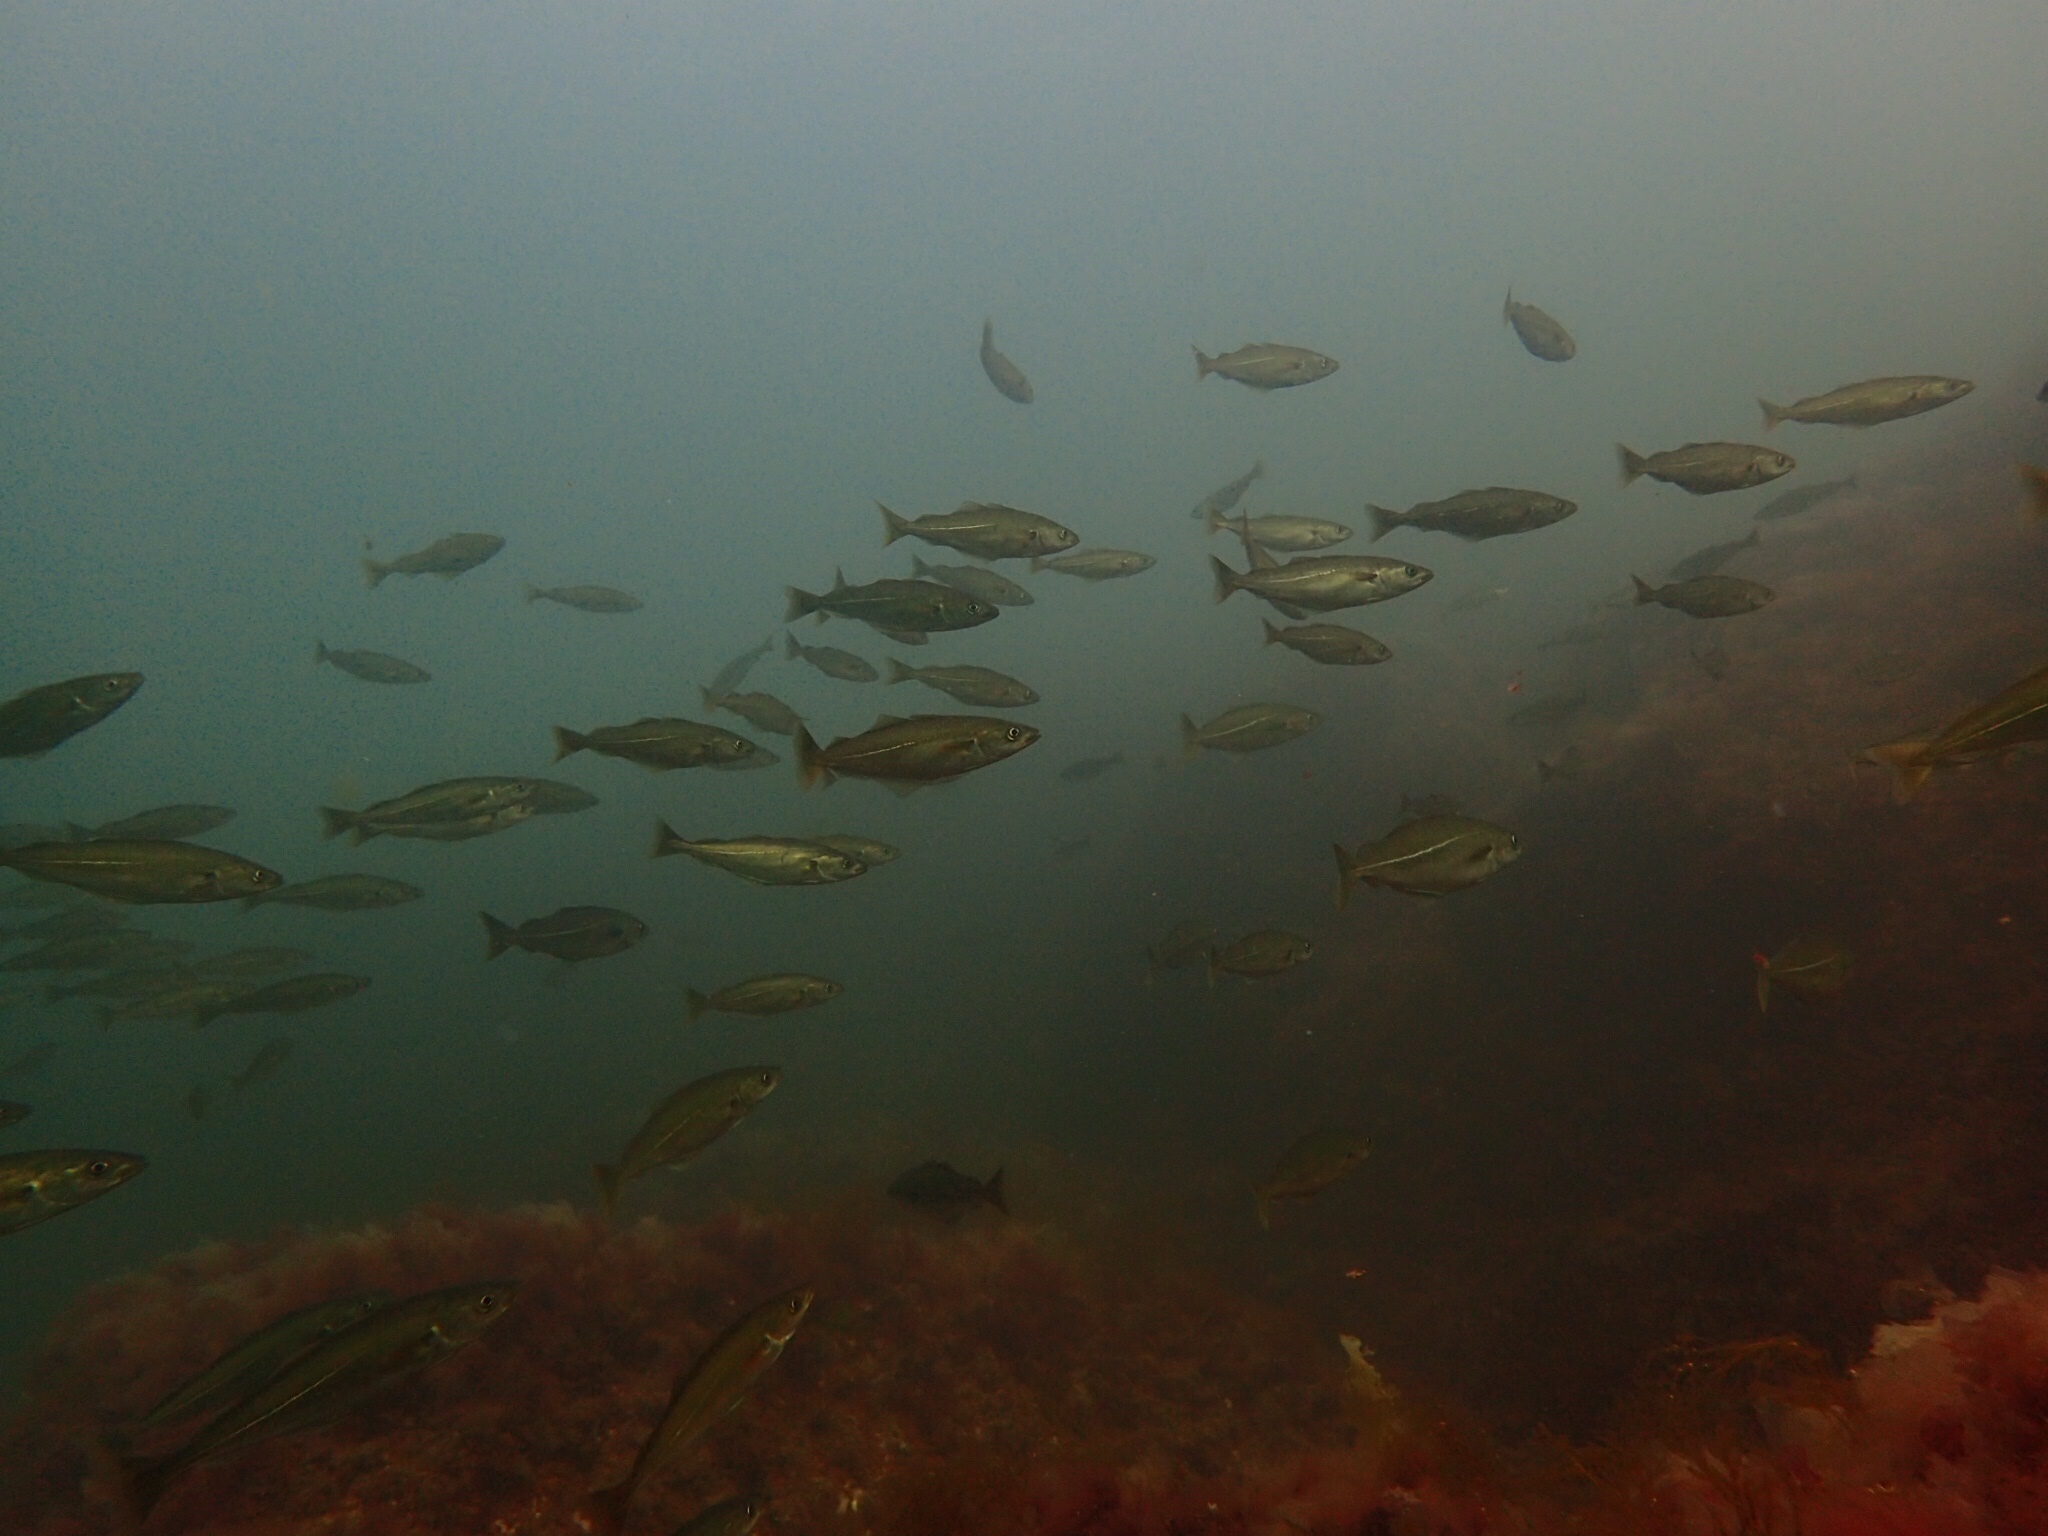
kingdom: Animalia
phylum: Chordata
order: Gadiformes
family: Gadidae
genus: Pollachius
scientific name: Pollachius virens
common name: Saithe
